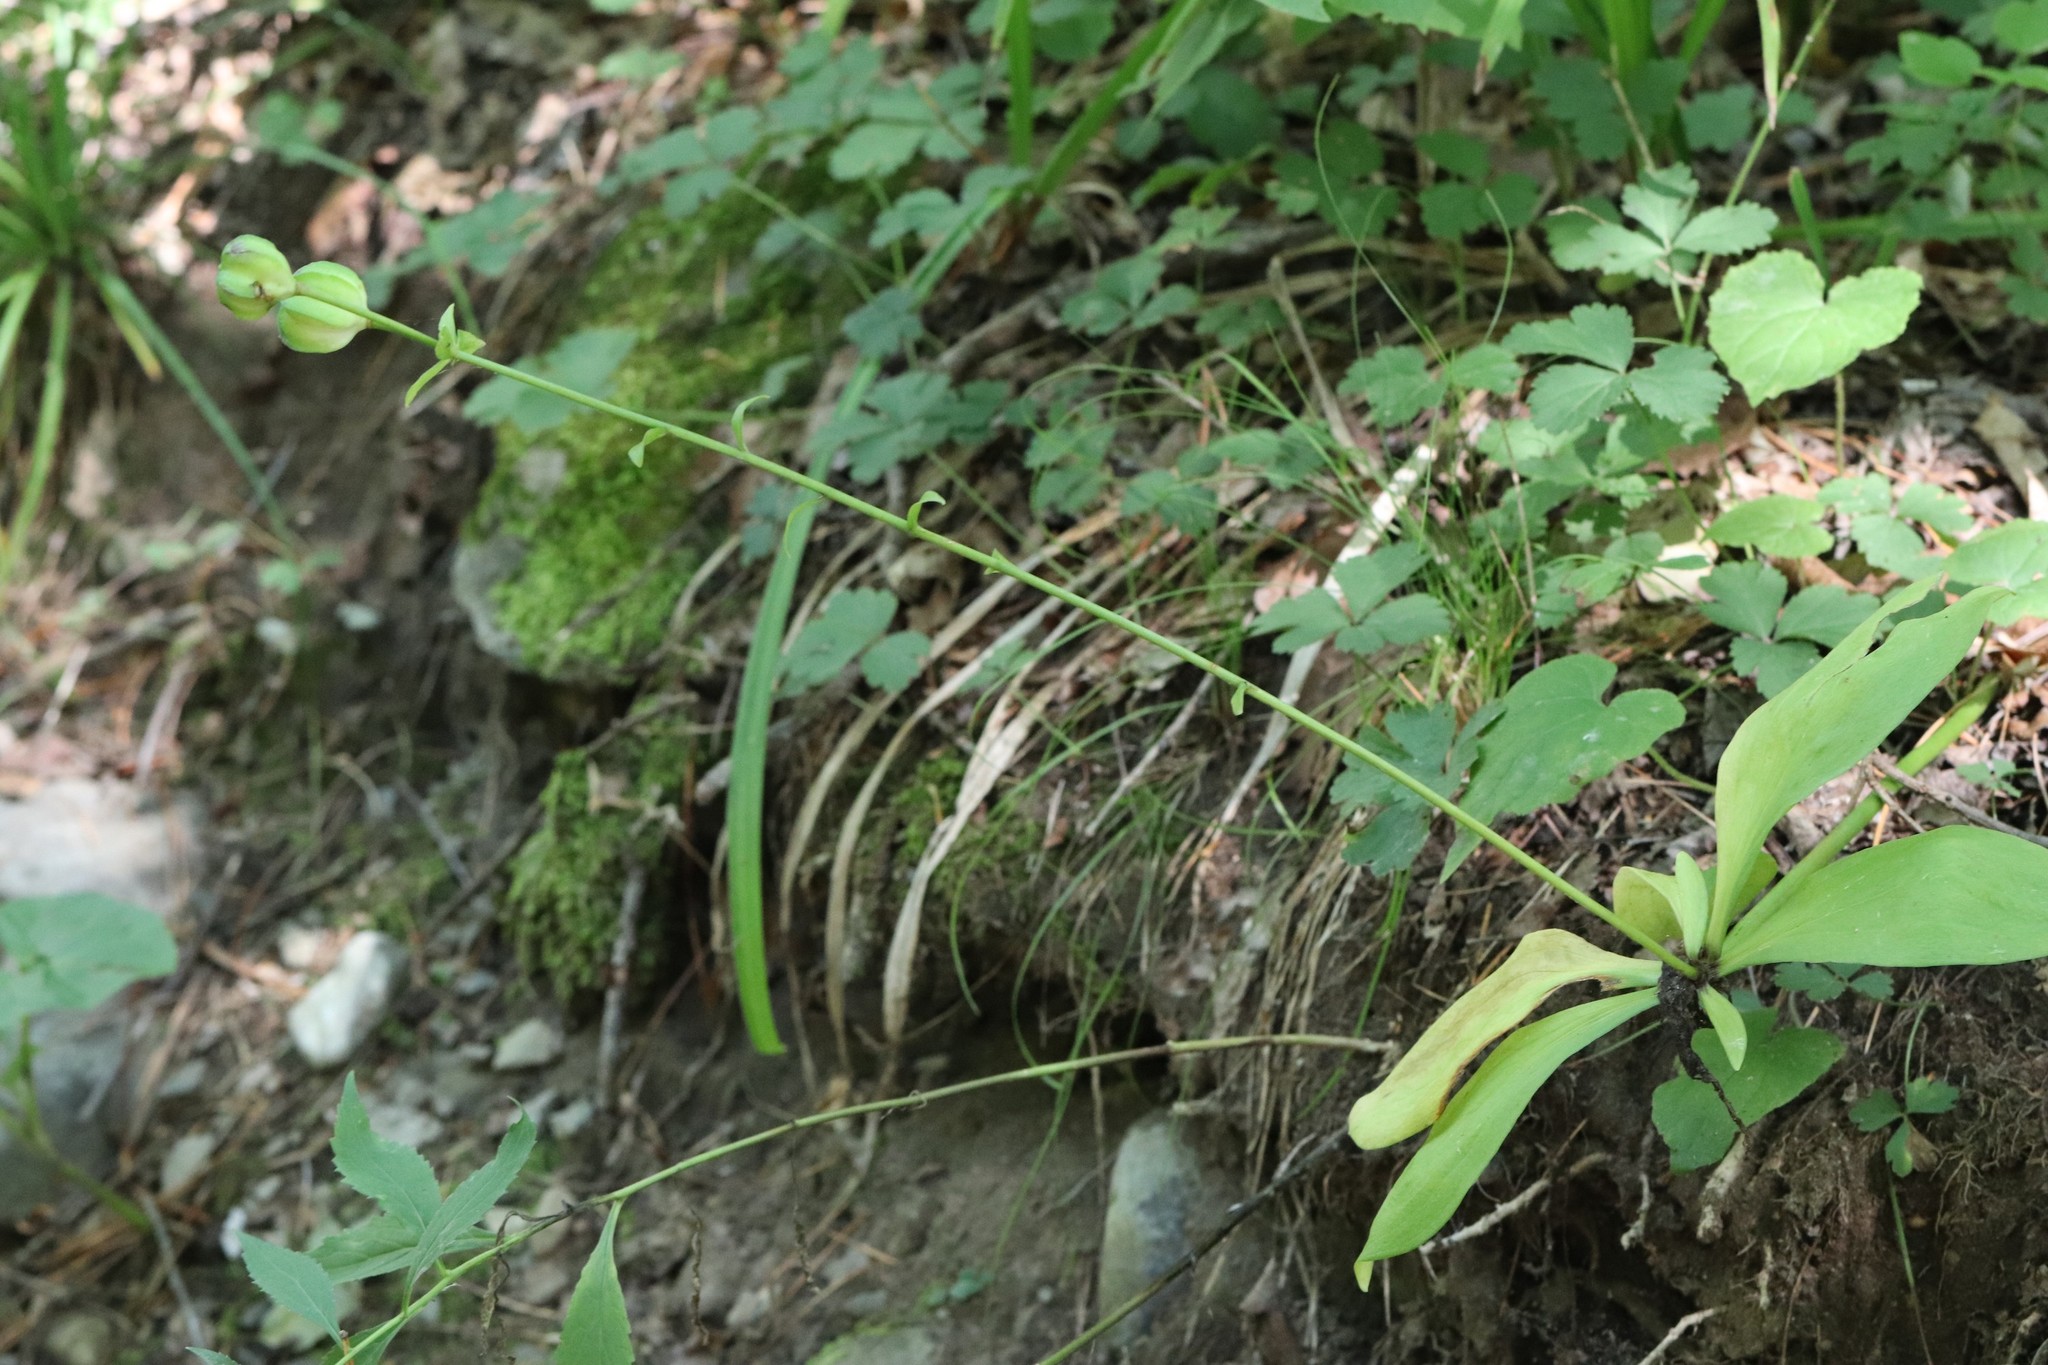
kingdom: Plantae
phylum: Tracheophyta
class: Liliopsida
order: Liliales
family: Liliaceae
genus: Lilium
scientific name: Lilium distichum
